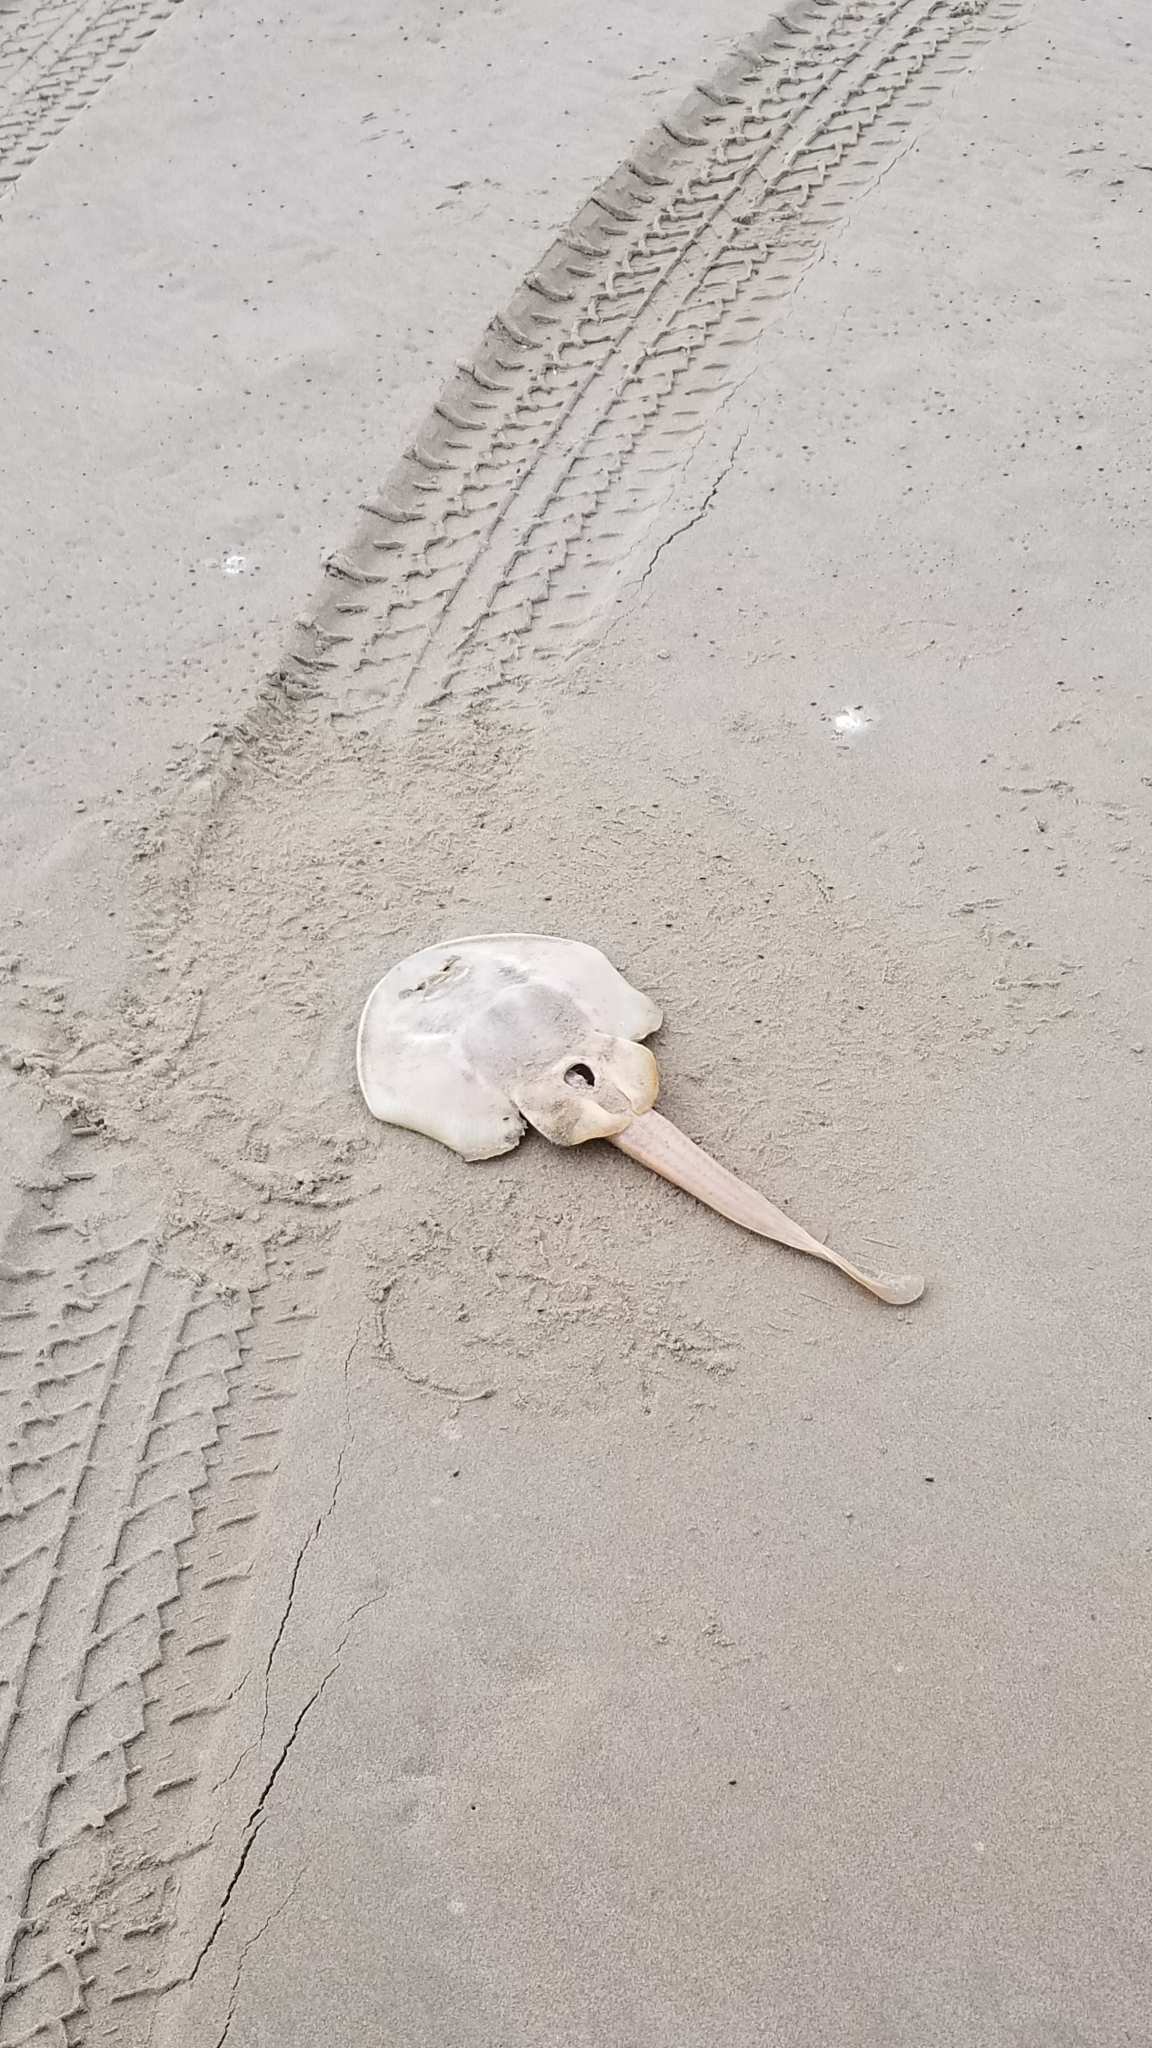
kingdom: Animalia
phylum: Chordata
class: Elasmobranchii
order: Rhinopristiformes
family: Rhinobatidae
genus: Platyrhinoidis
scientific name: Platyrhinoidis triseriata
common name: Thornback
